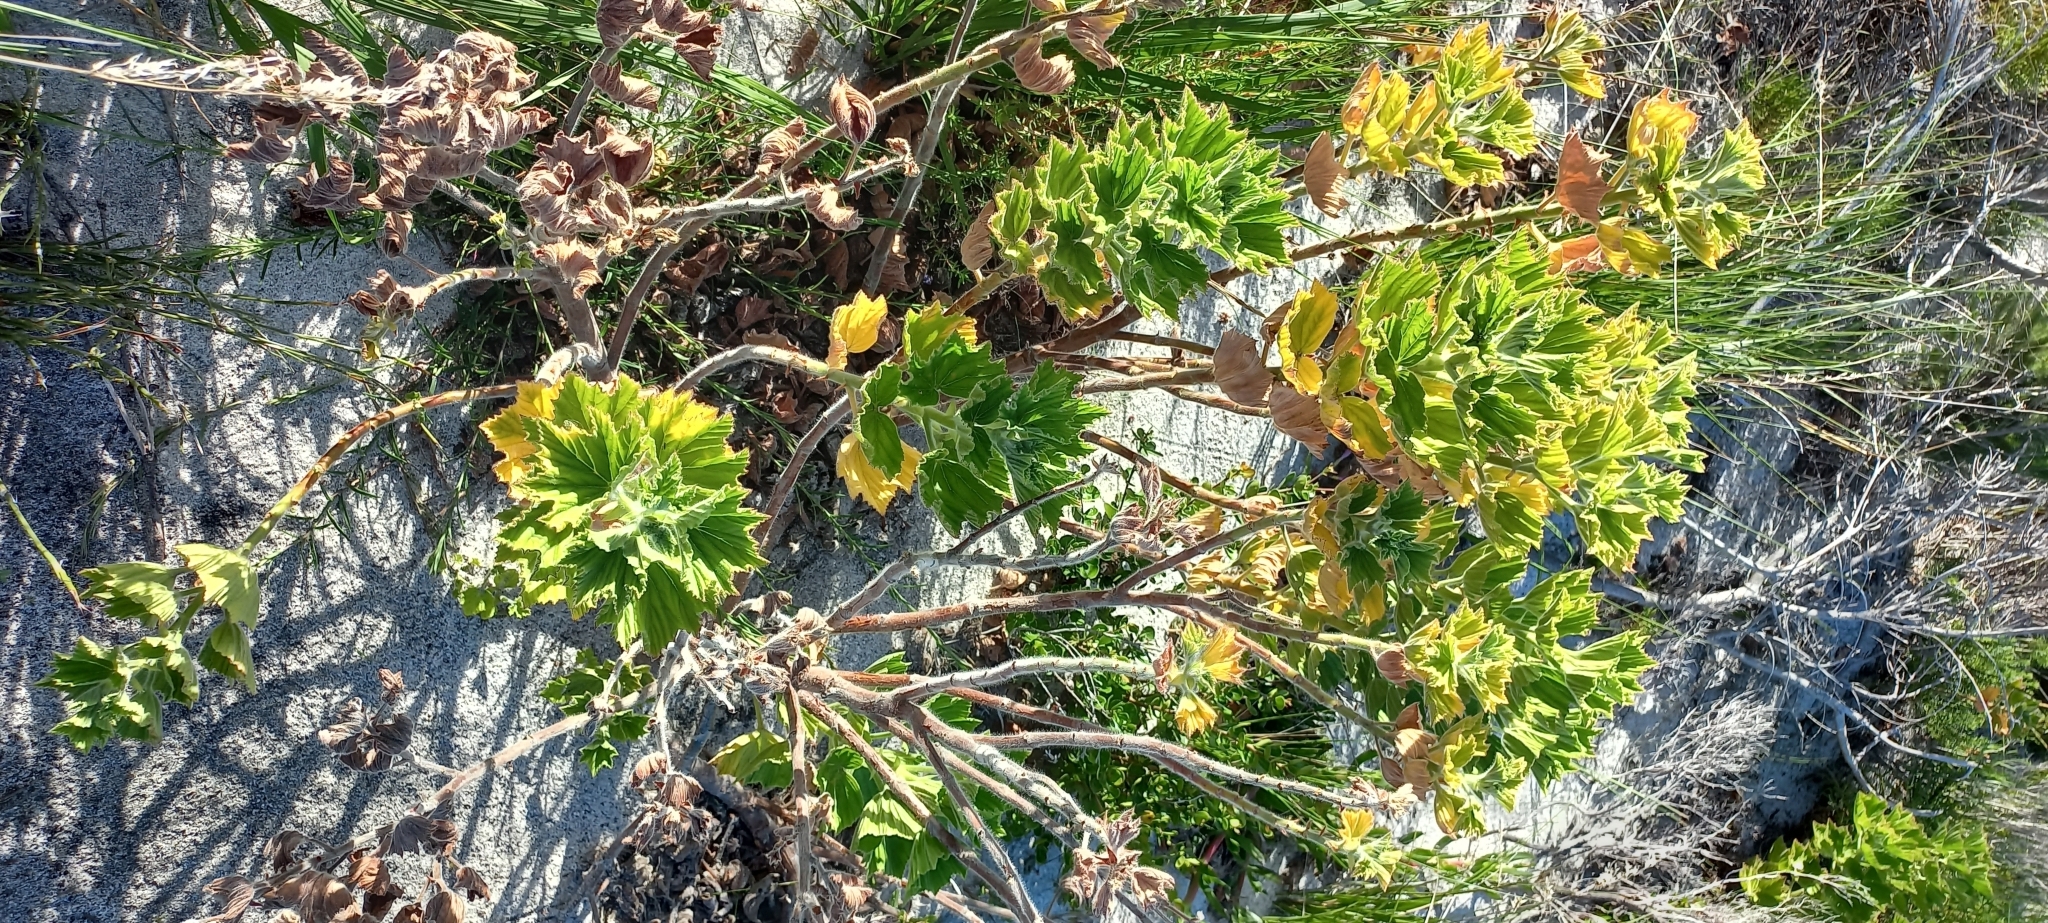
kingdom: Plantae
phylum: Tracheophyta
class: Magnoliopsida
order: Geraniales
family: Geraniaceae
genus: Pelargonium
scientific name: Pelargonium cucullatum
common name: Tree pelargonium
